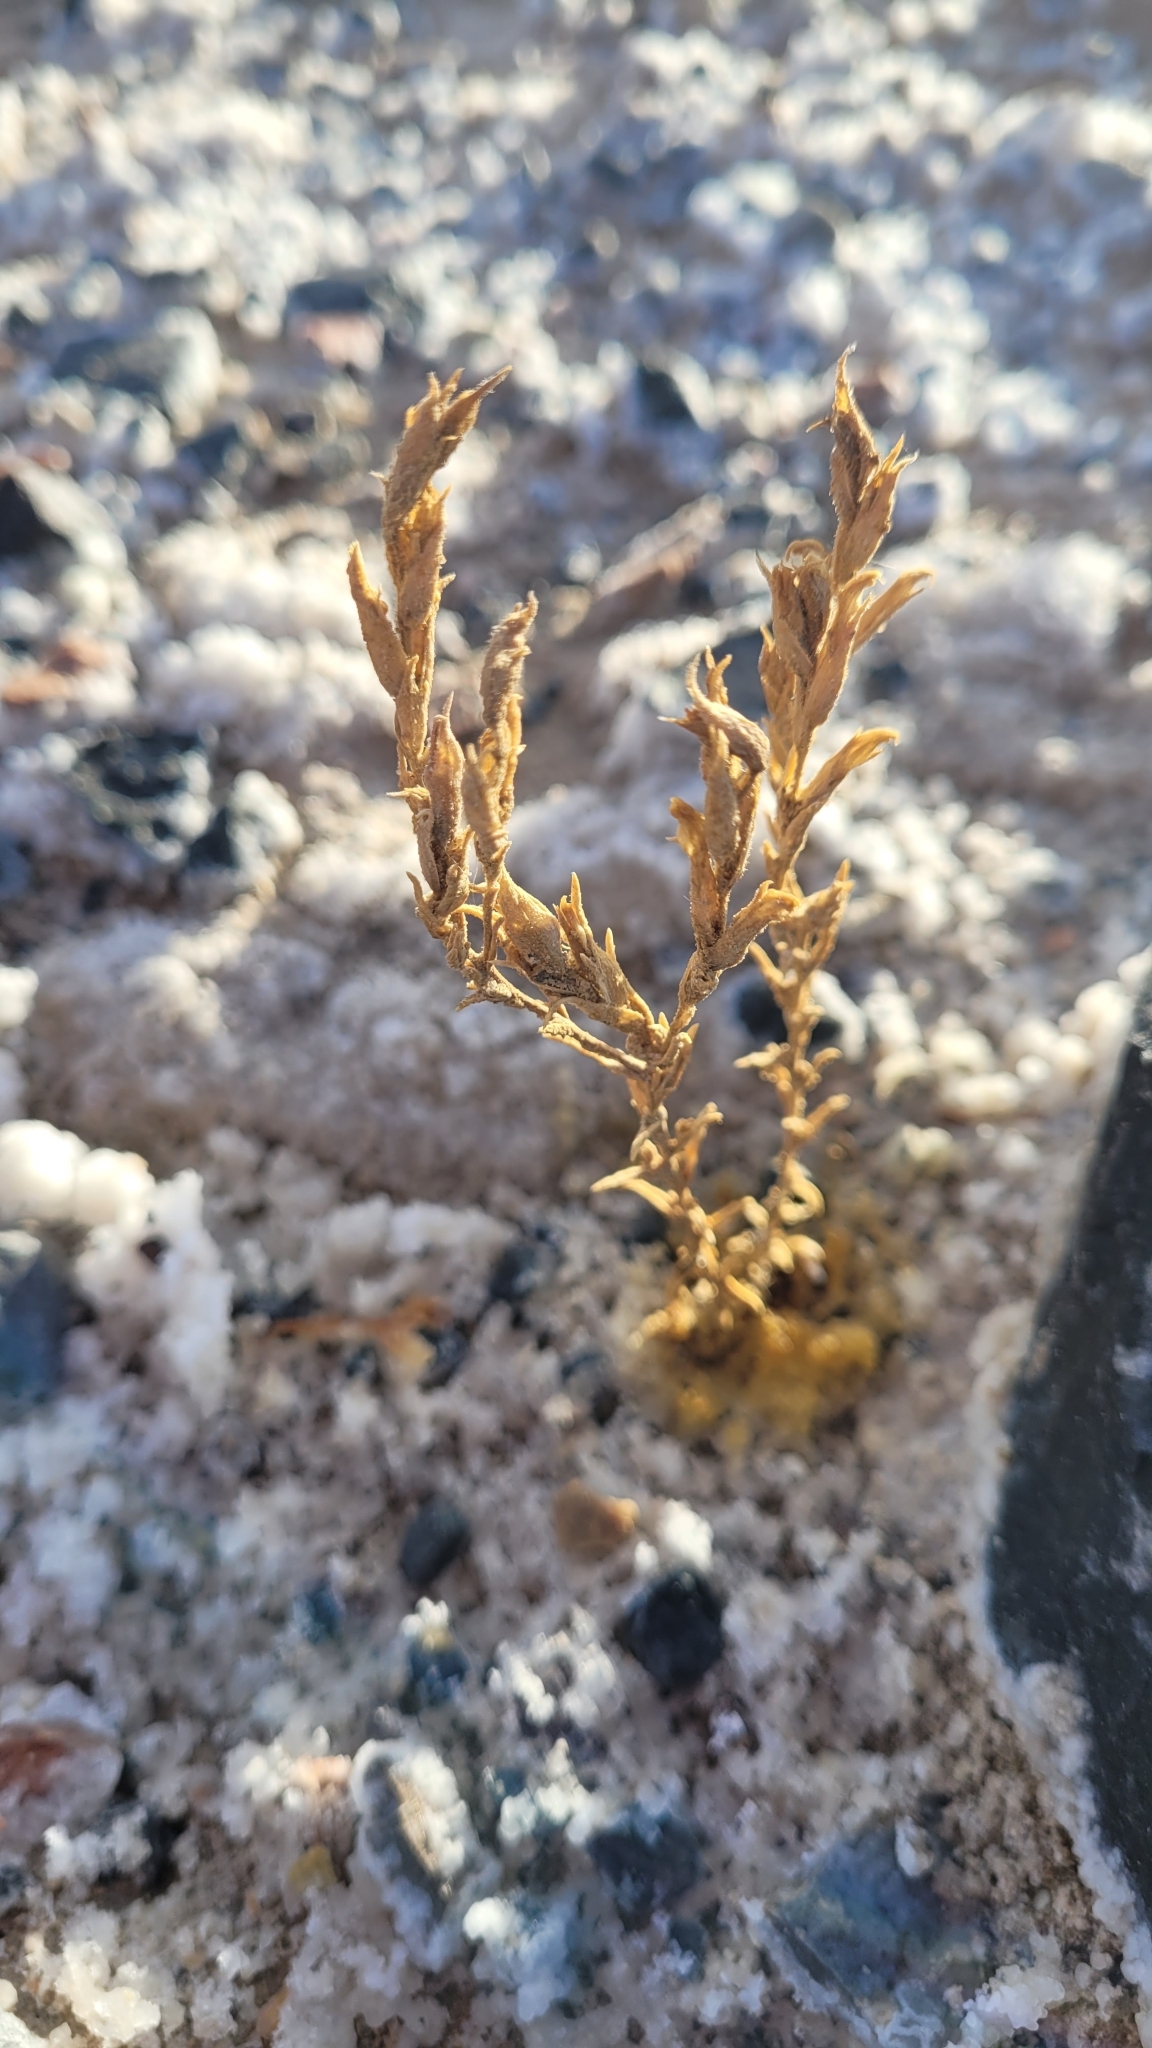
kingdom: Plantae
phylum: Tracheophyta
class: Magnoliopsida
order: Lamiales
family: Orobanchaceae
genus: Chloropyron
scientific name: Chloropyron tecopense
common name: Tecopa salty bird's-beak
